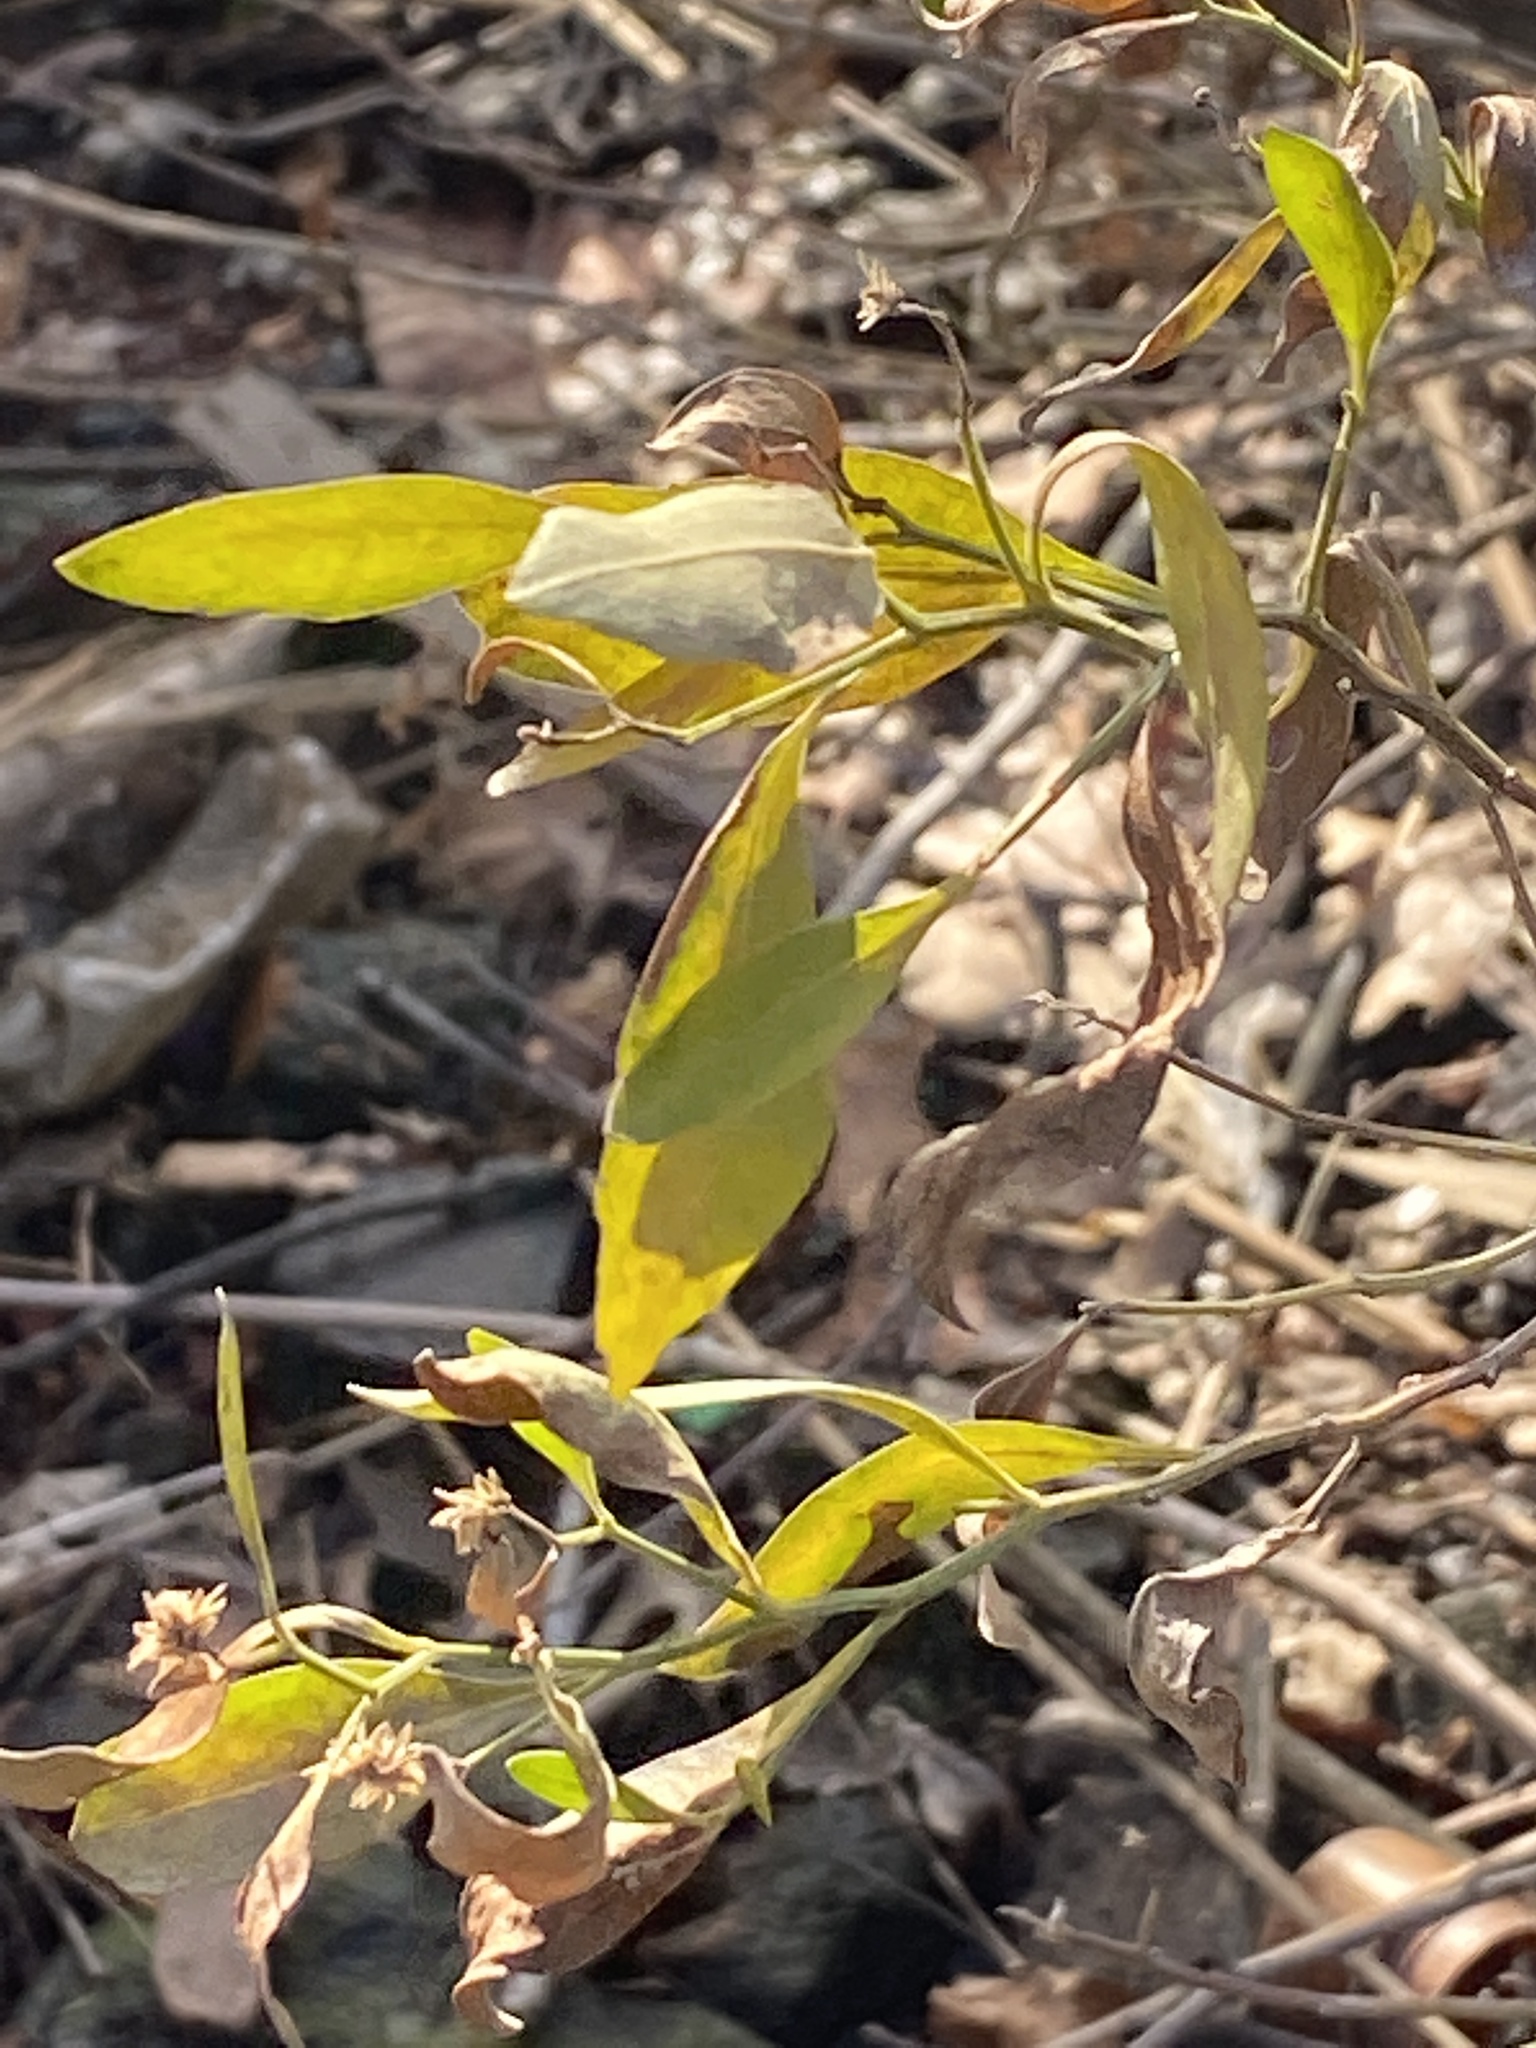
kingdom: Plantae
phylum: Tracheophyta
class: Magnoliopsida
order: Asterales
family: Asteraceae
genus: Baccharis
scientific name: Baccharis halimifolia
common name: Eastern baccharis
